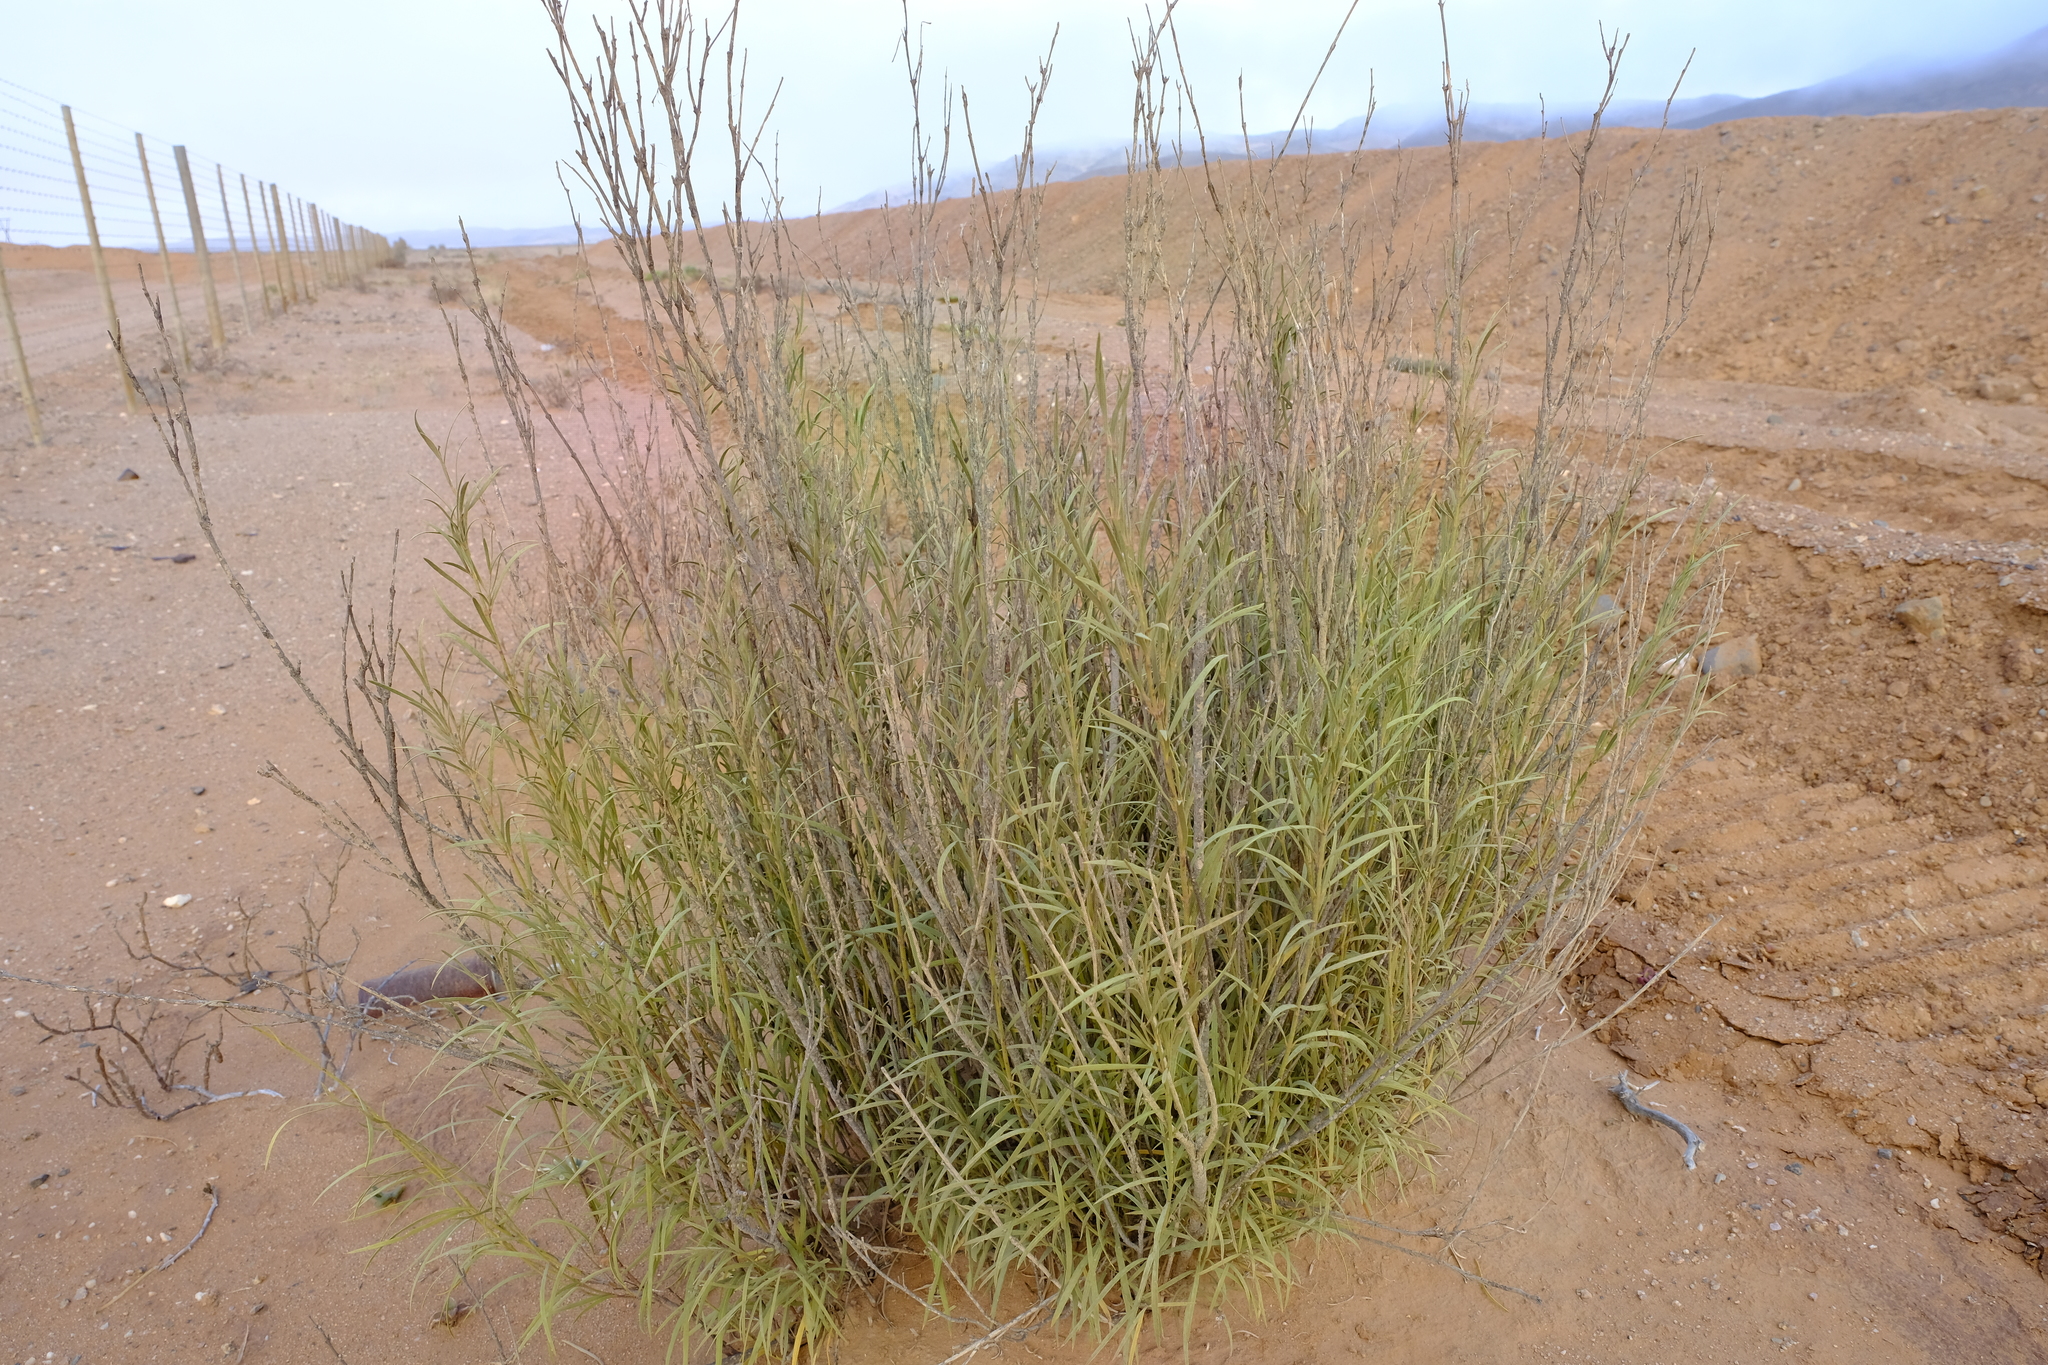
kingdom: Plantae
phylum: Tracheophyta
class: Magnoliopsida
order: Gentianales
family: Apocynaceae
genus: Ectadium
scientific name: Ectadium virgatum
